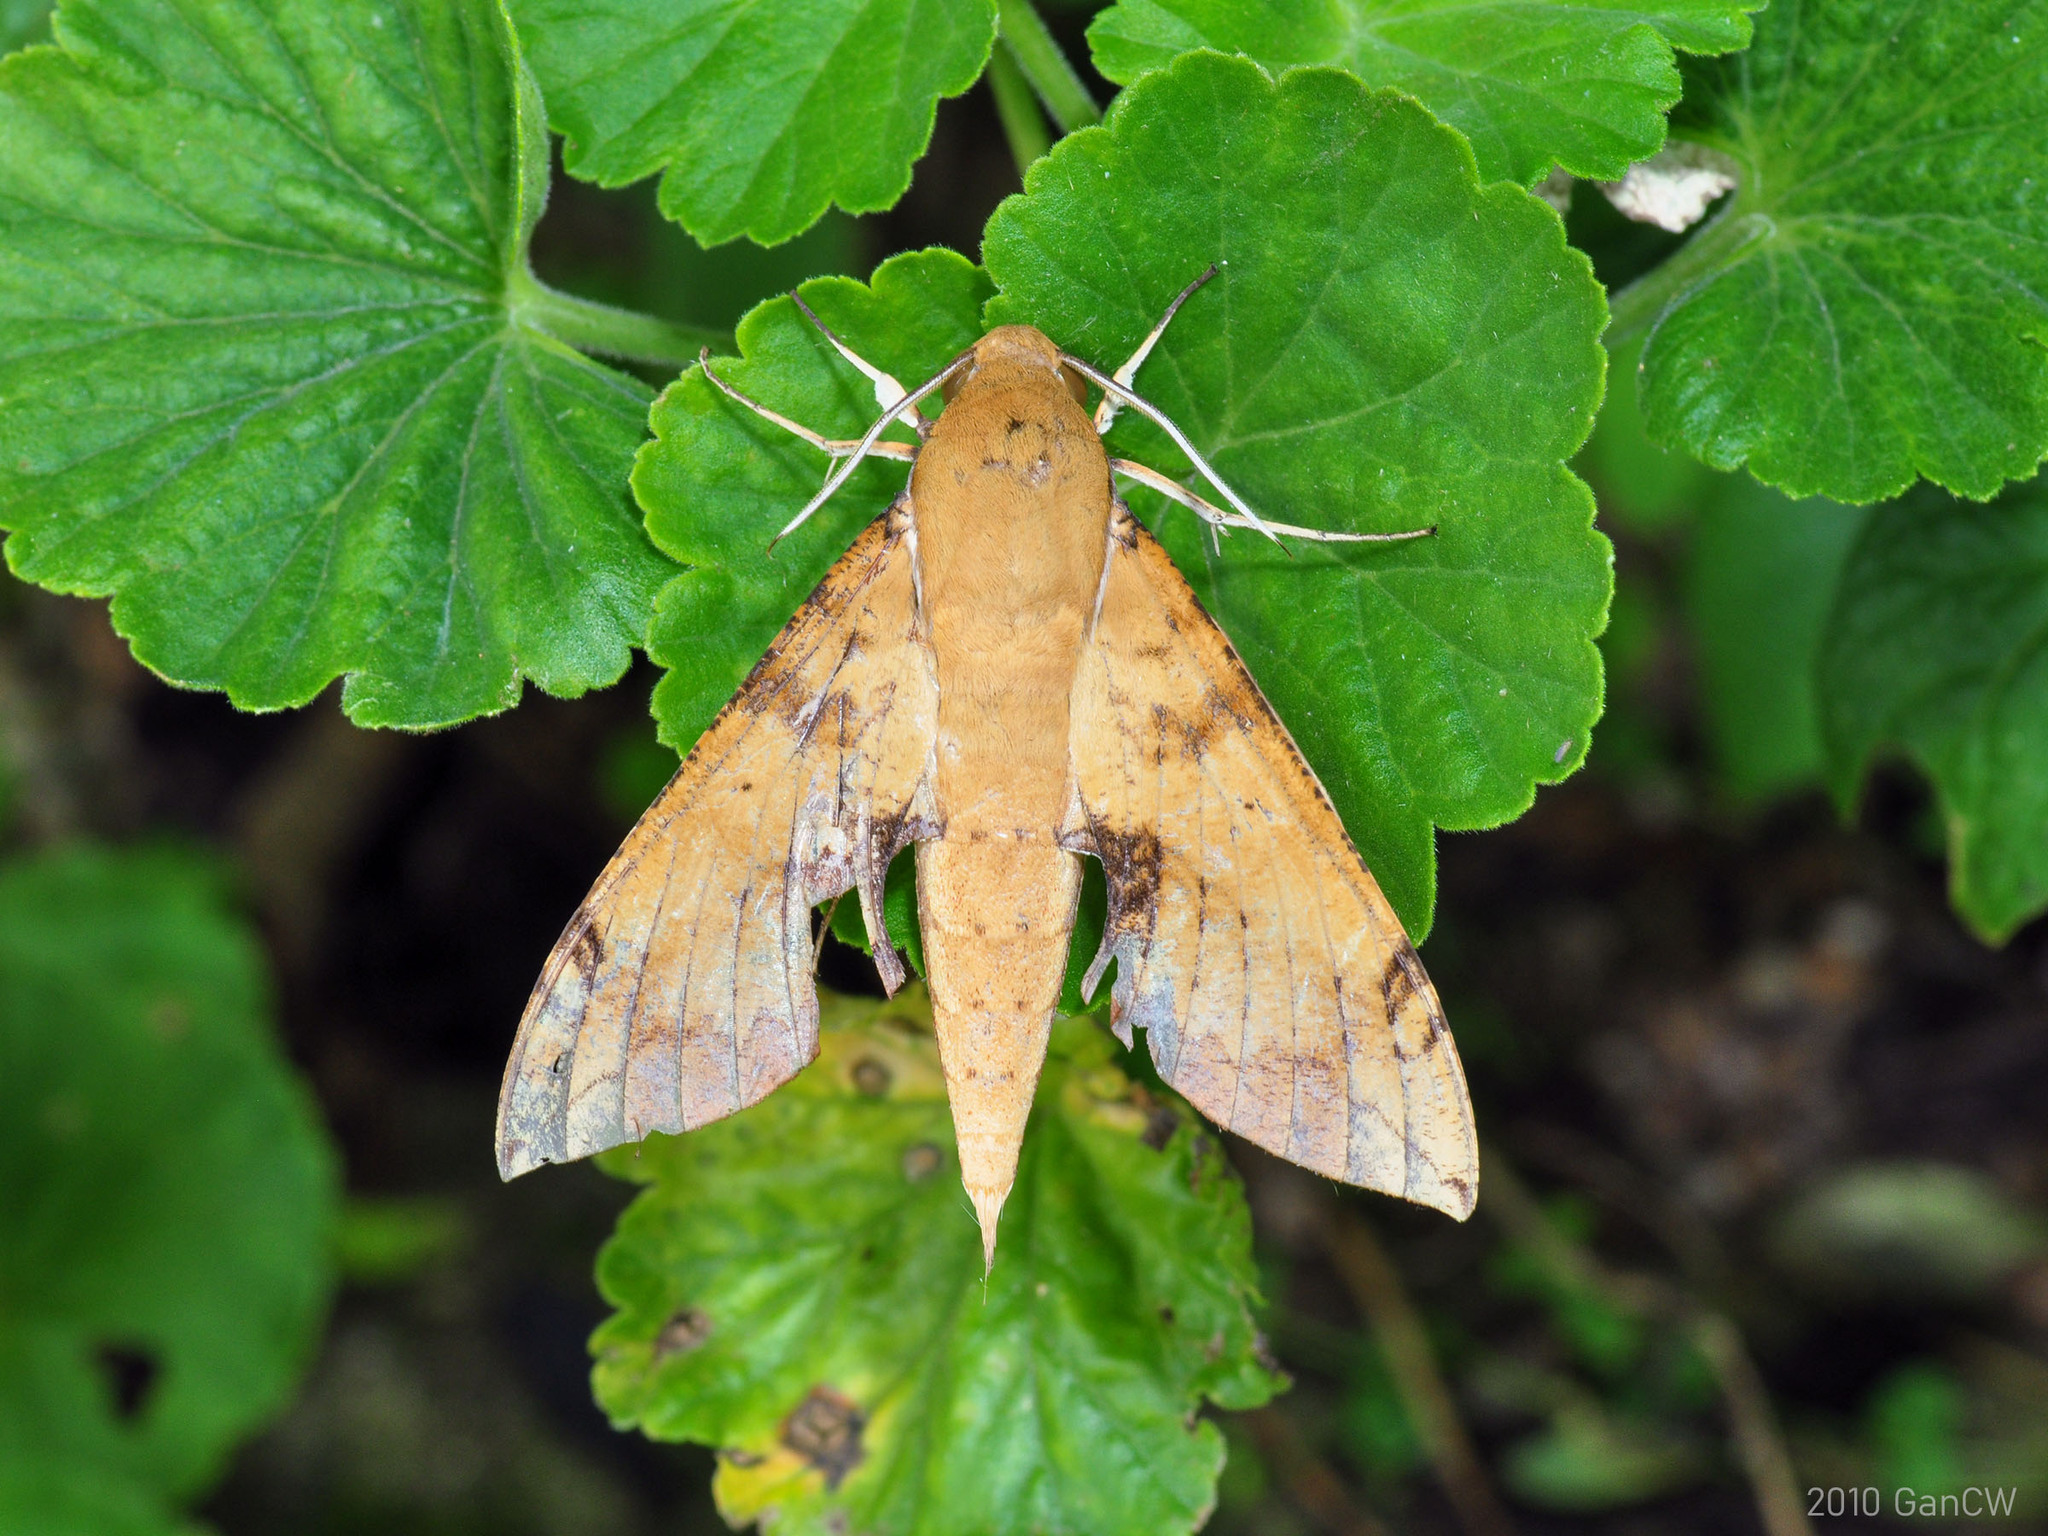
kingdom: Animalia
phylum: Arthropoda
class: Insecta
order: Lepidoptera
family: Sphingidae
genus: Cechenena
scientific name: Cechenena chimaera
